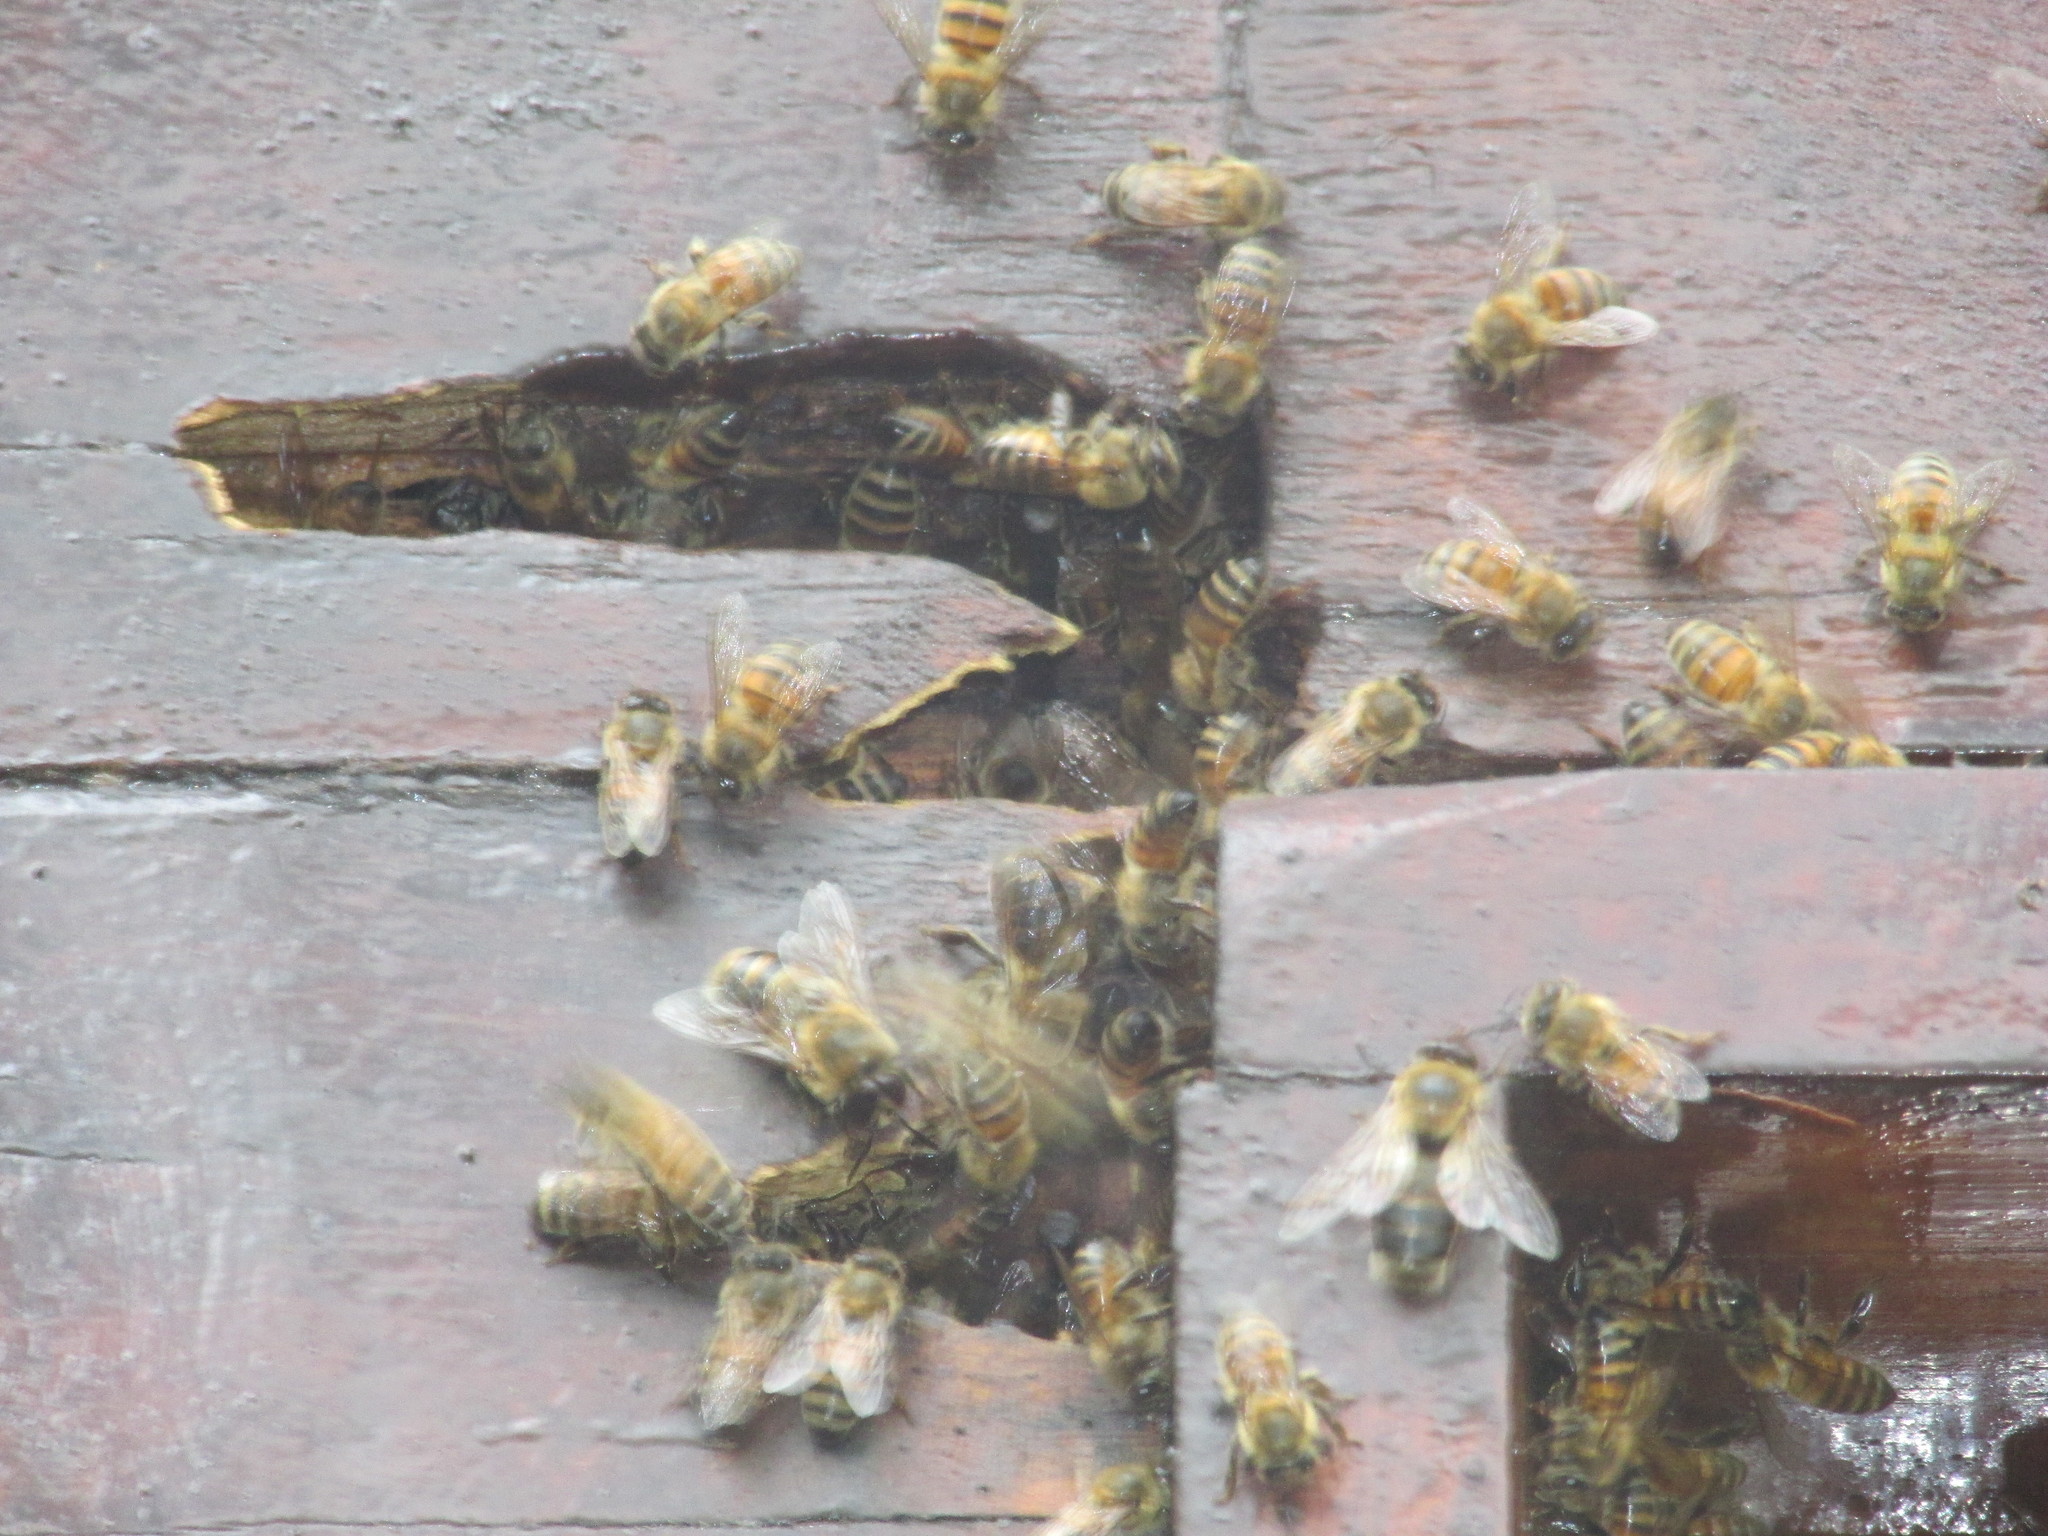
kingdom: Animalia
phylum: Arthropoda
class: Insecta
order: Hymenoptera
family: Apidae
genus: Apis
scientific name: Apis mellifera
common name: Honey bee
